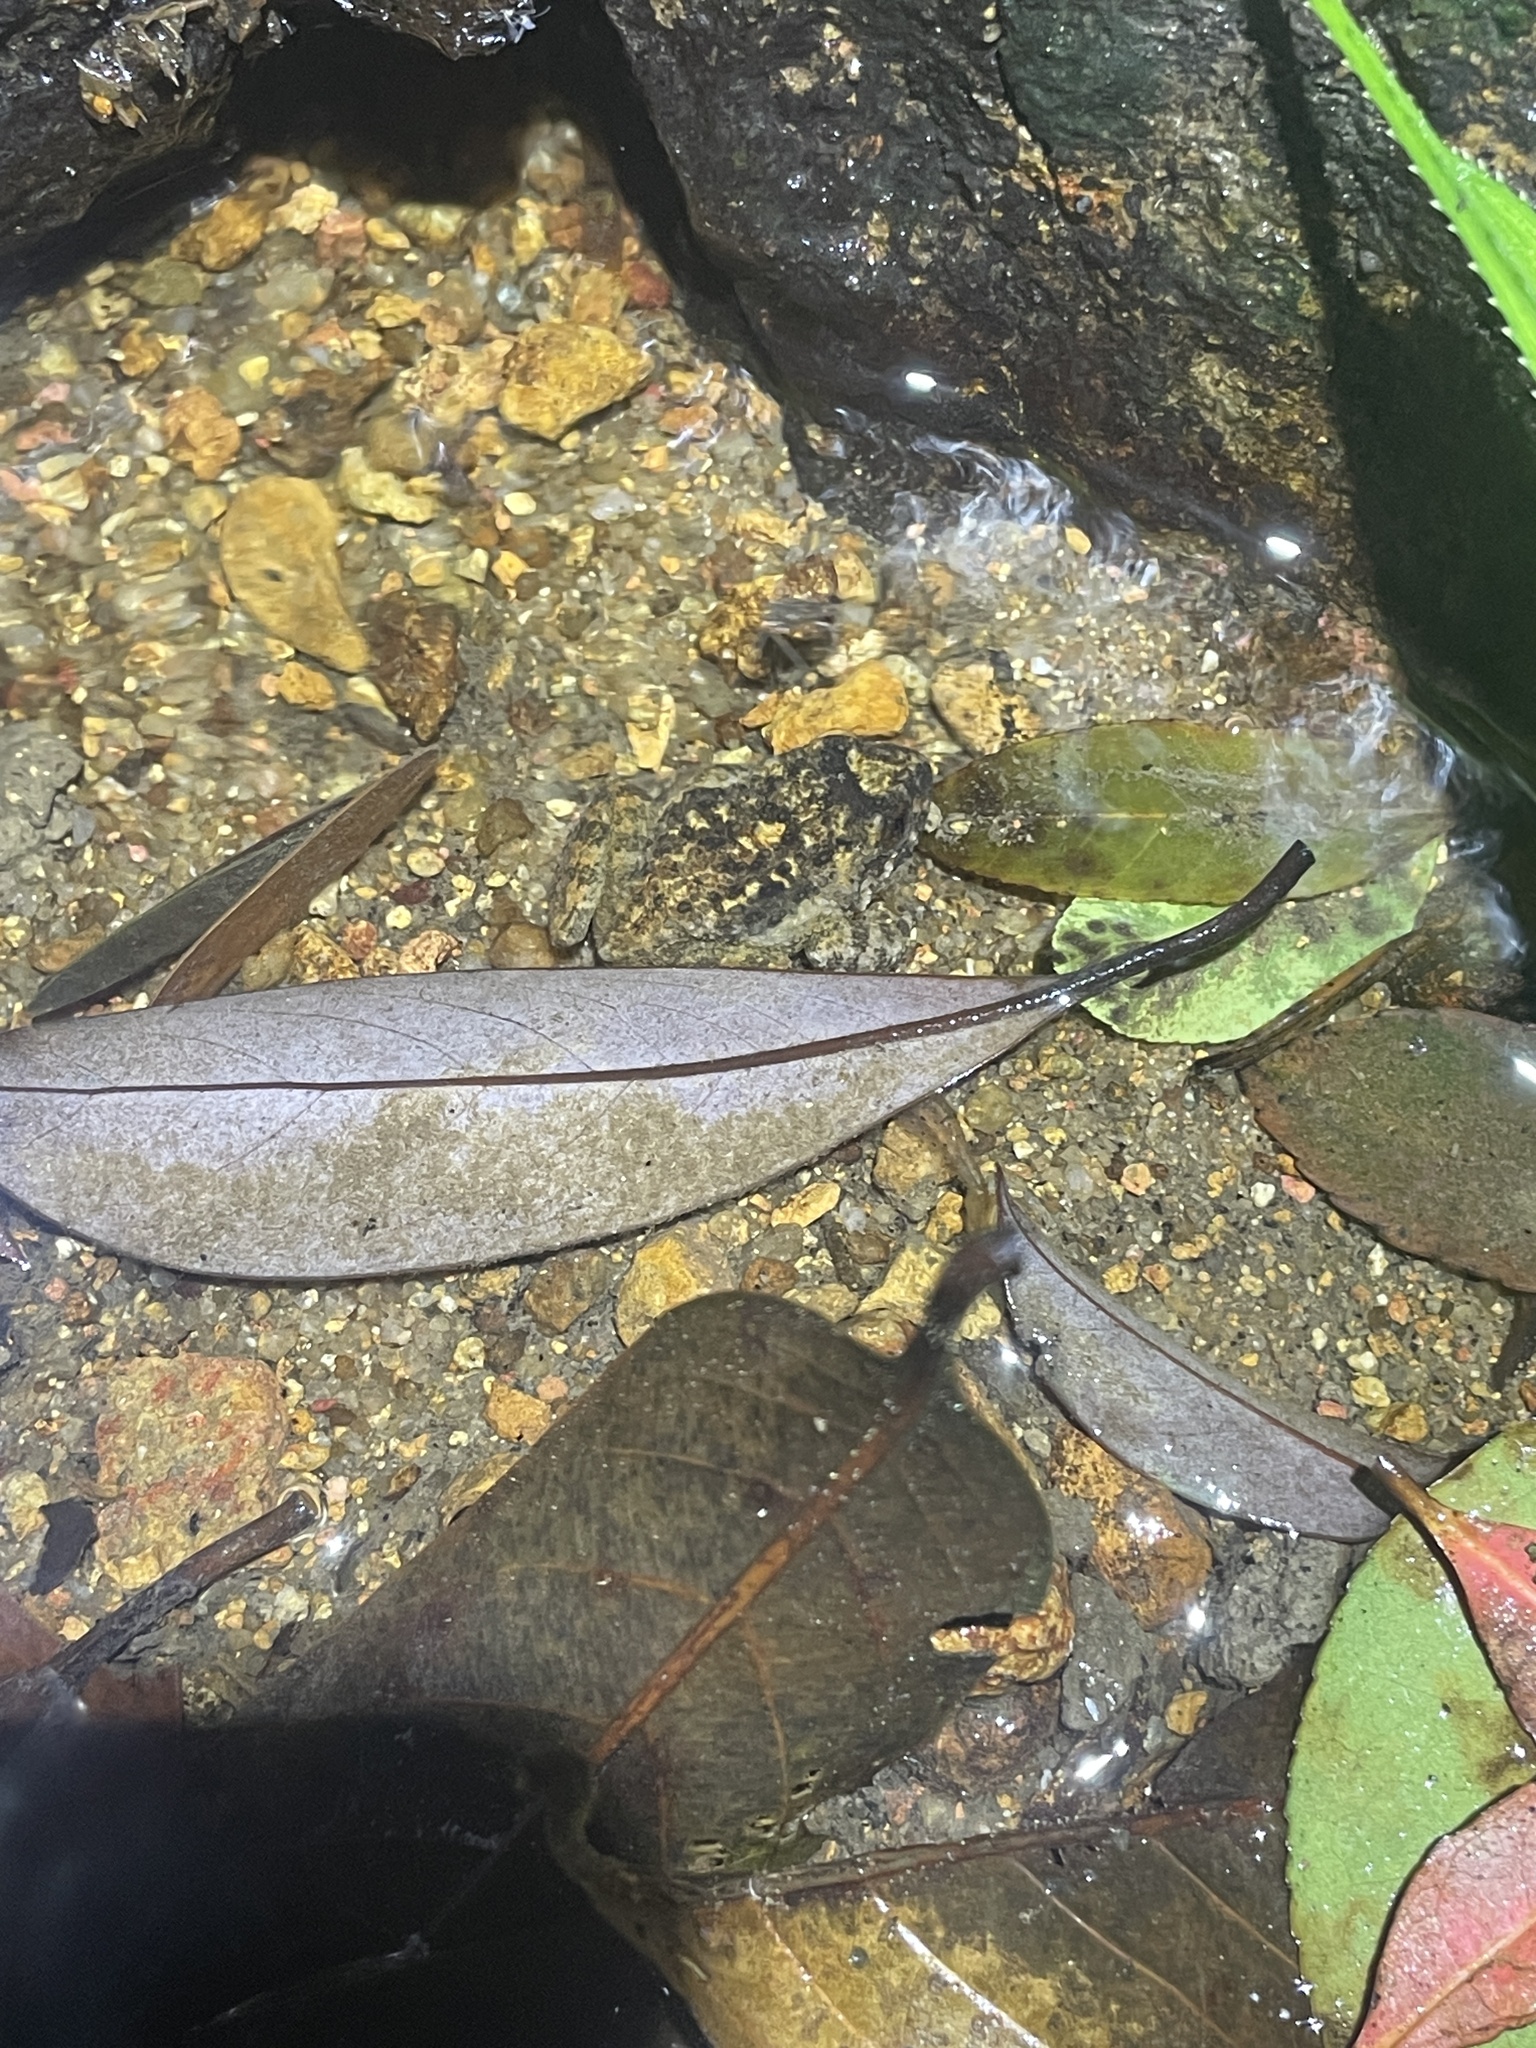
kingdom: Animalia
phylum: Chordata
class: Amphibia
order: Anura
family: Dicroglossidae
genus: Quasipaa
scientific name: Quasipaa exilispinosa
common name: Hong kong paa frog
